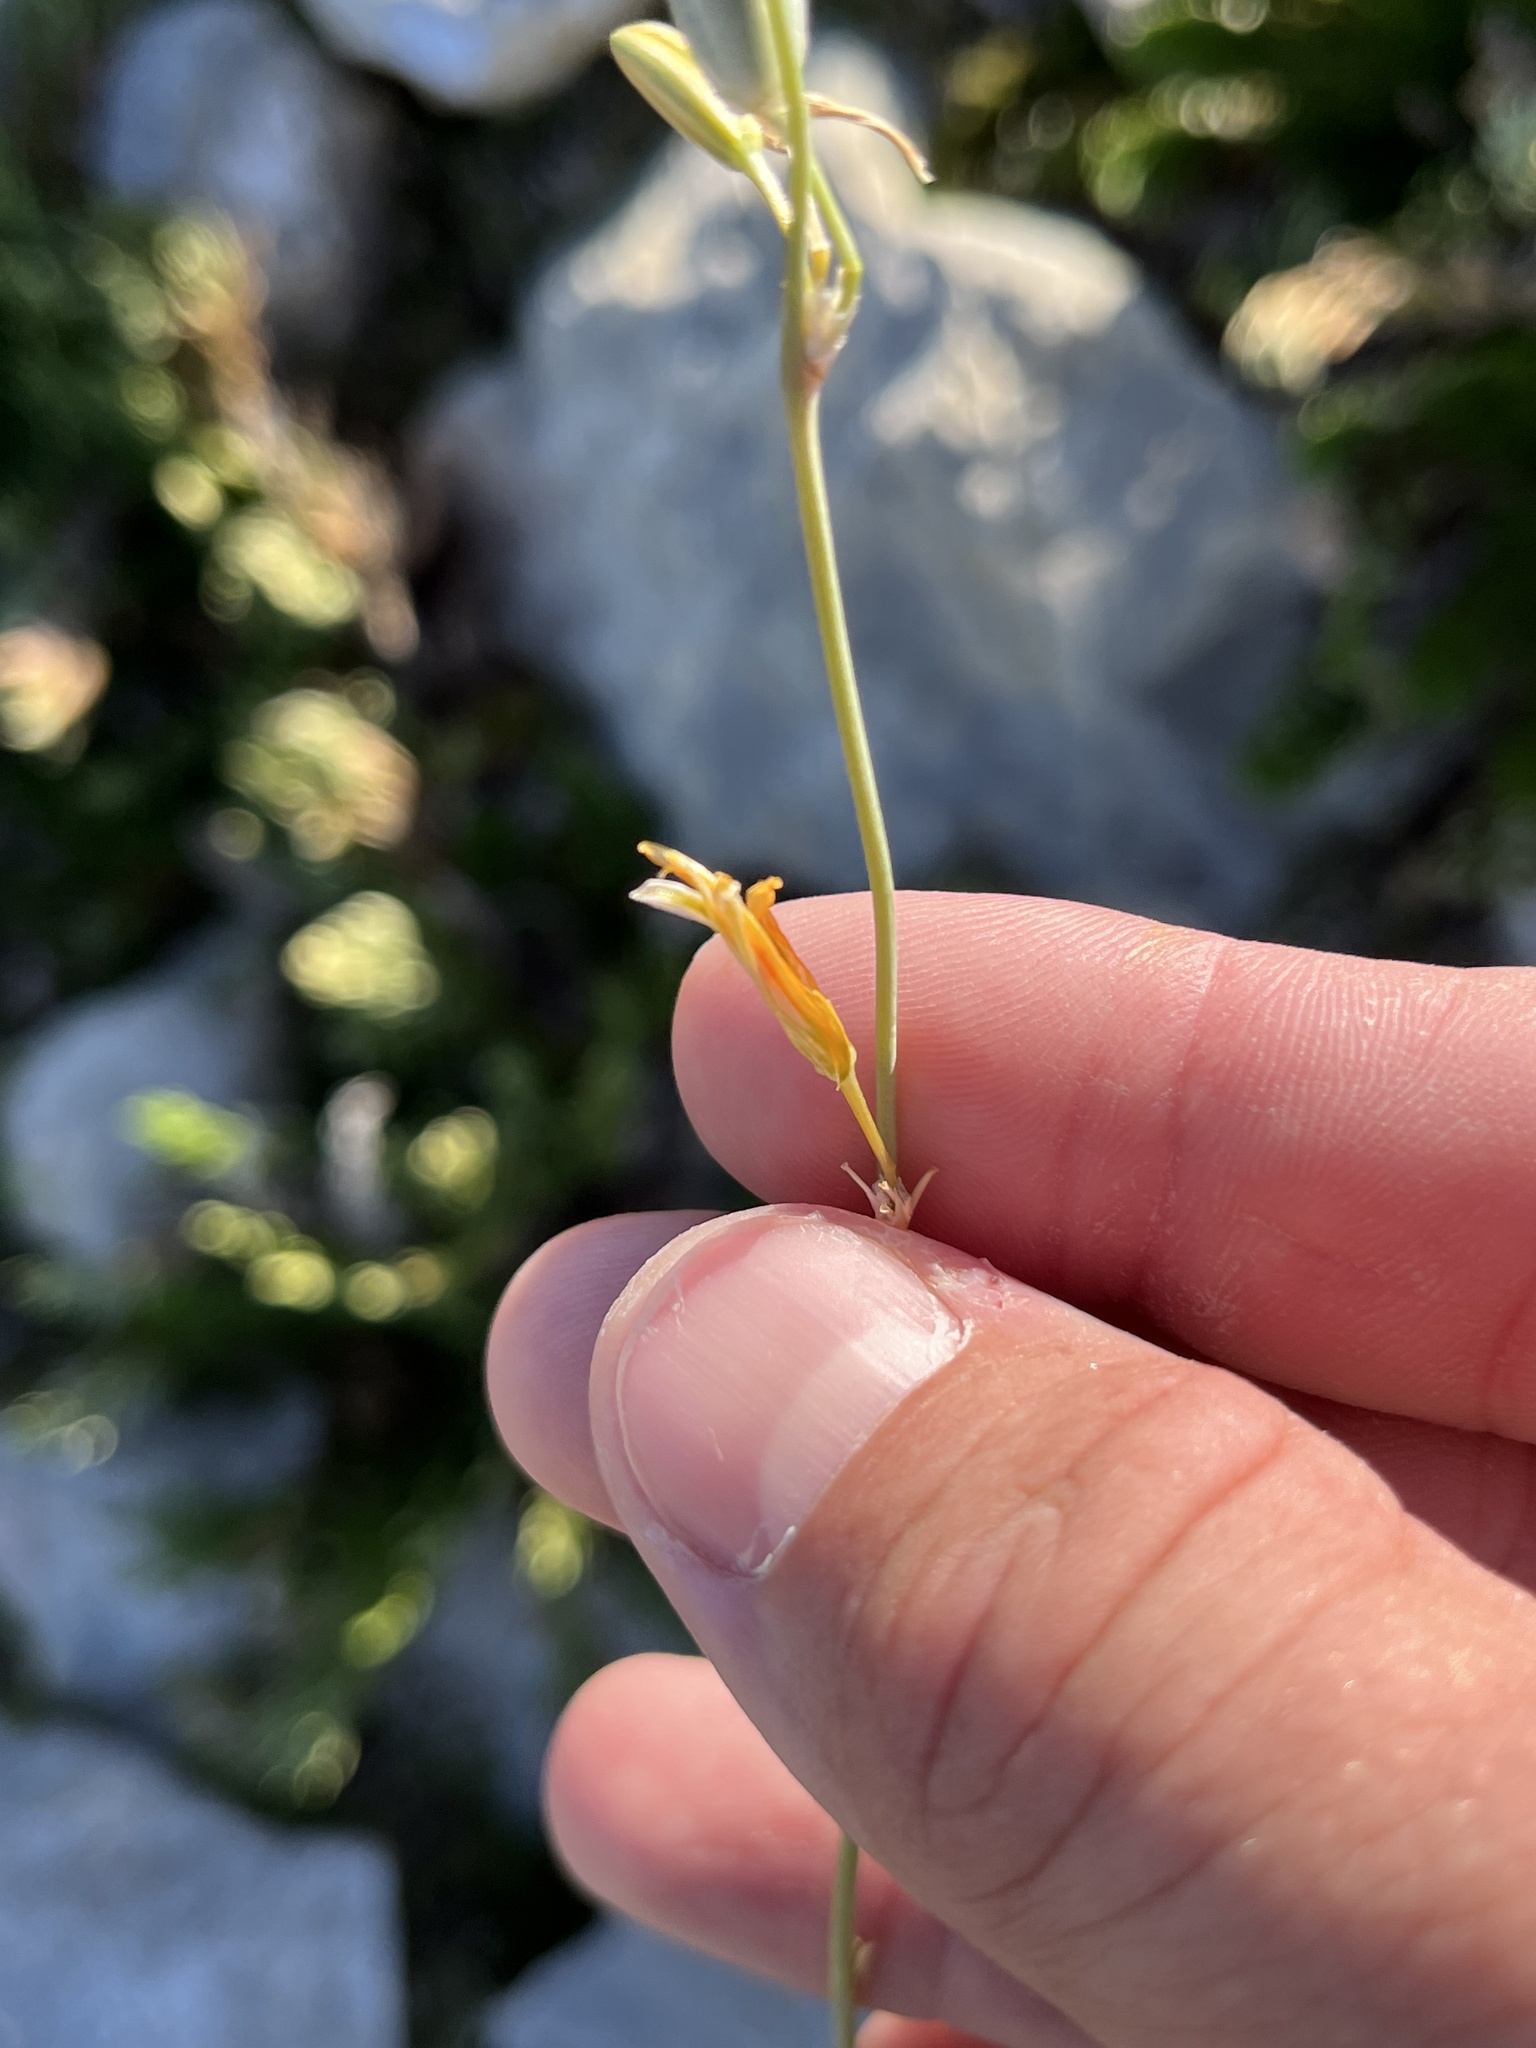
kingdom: Plantae
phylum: Tracheophyta
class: Liliopsida
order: Asparagales
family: Asparagaceae
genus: Echeandia
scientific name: Echeandia flavescens
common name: Amberlily
